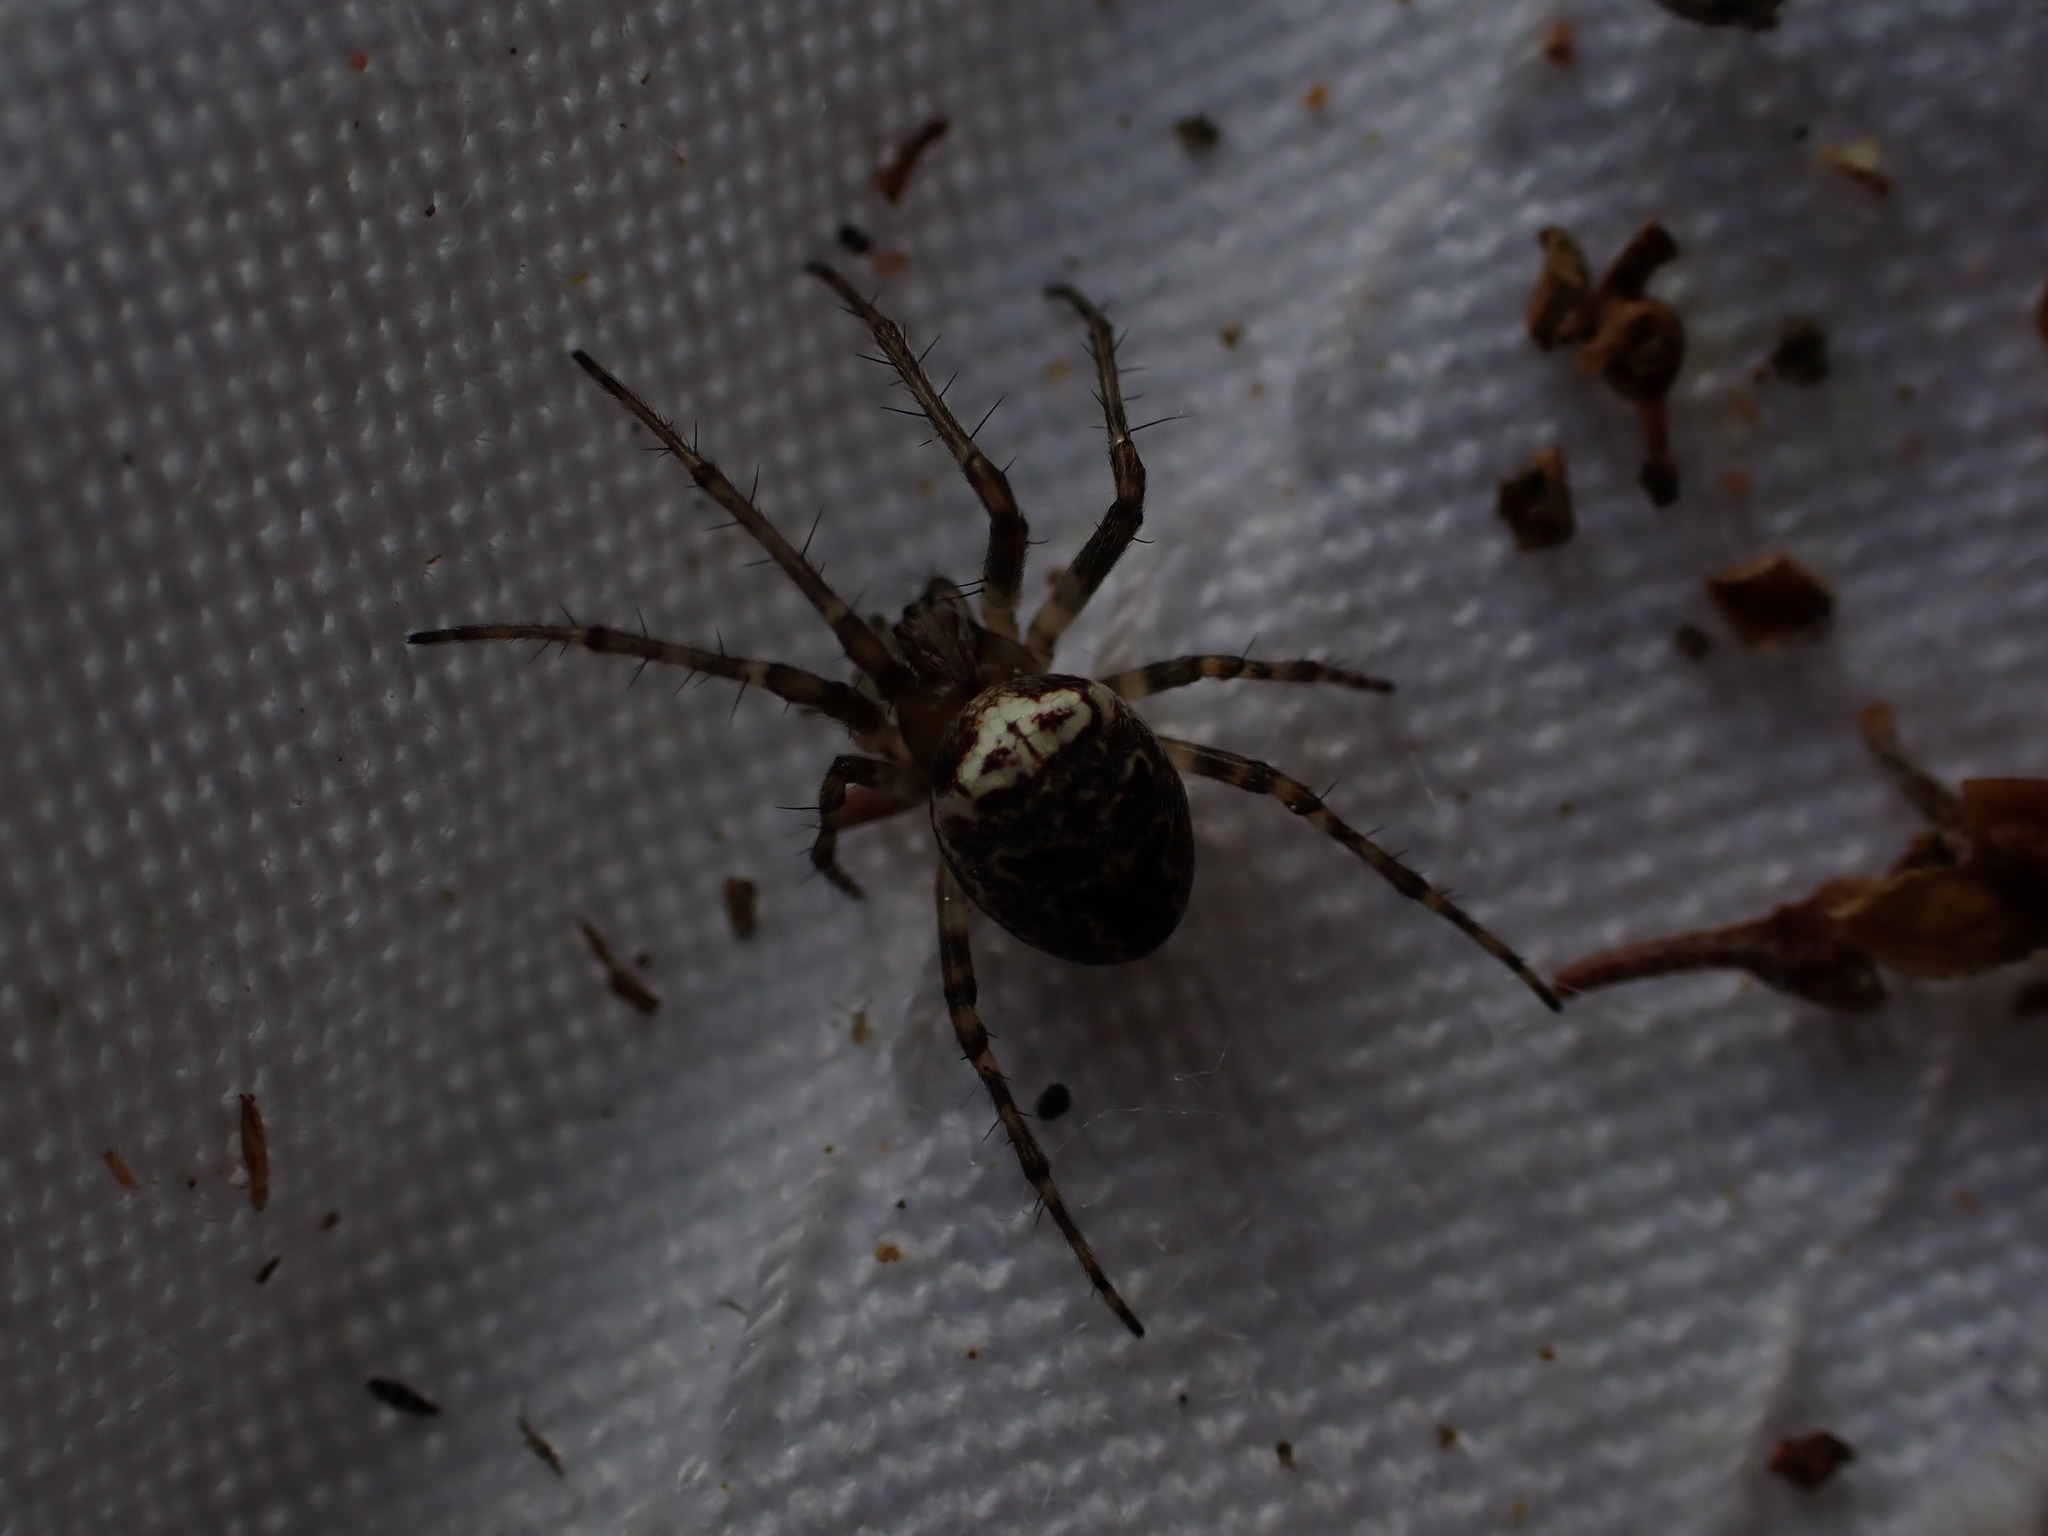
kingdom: Animalia
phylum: Arthropoda
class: Arachnida
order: Araneae
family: Araneidae
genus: Zilla
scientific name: Zilla diodia
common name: Zilla diodia
